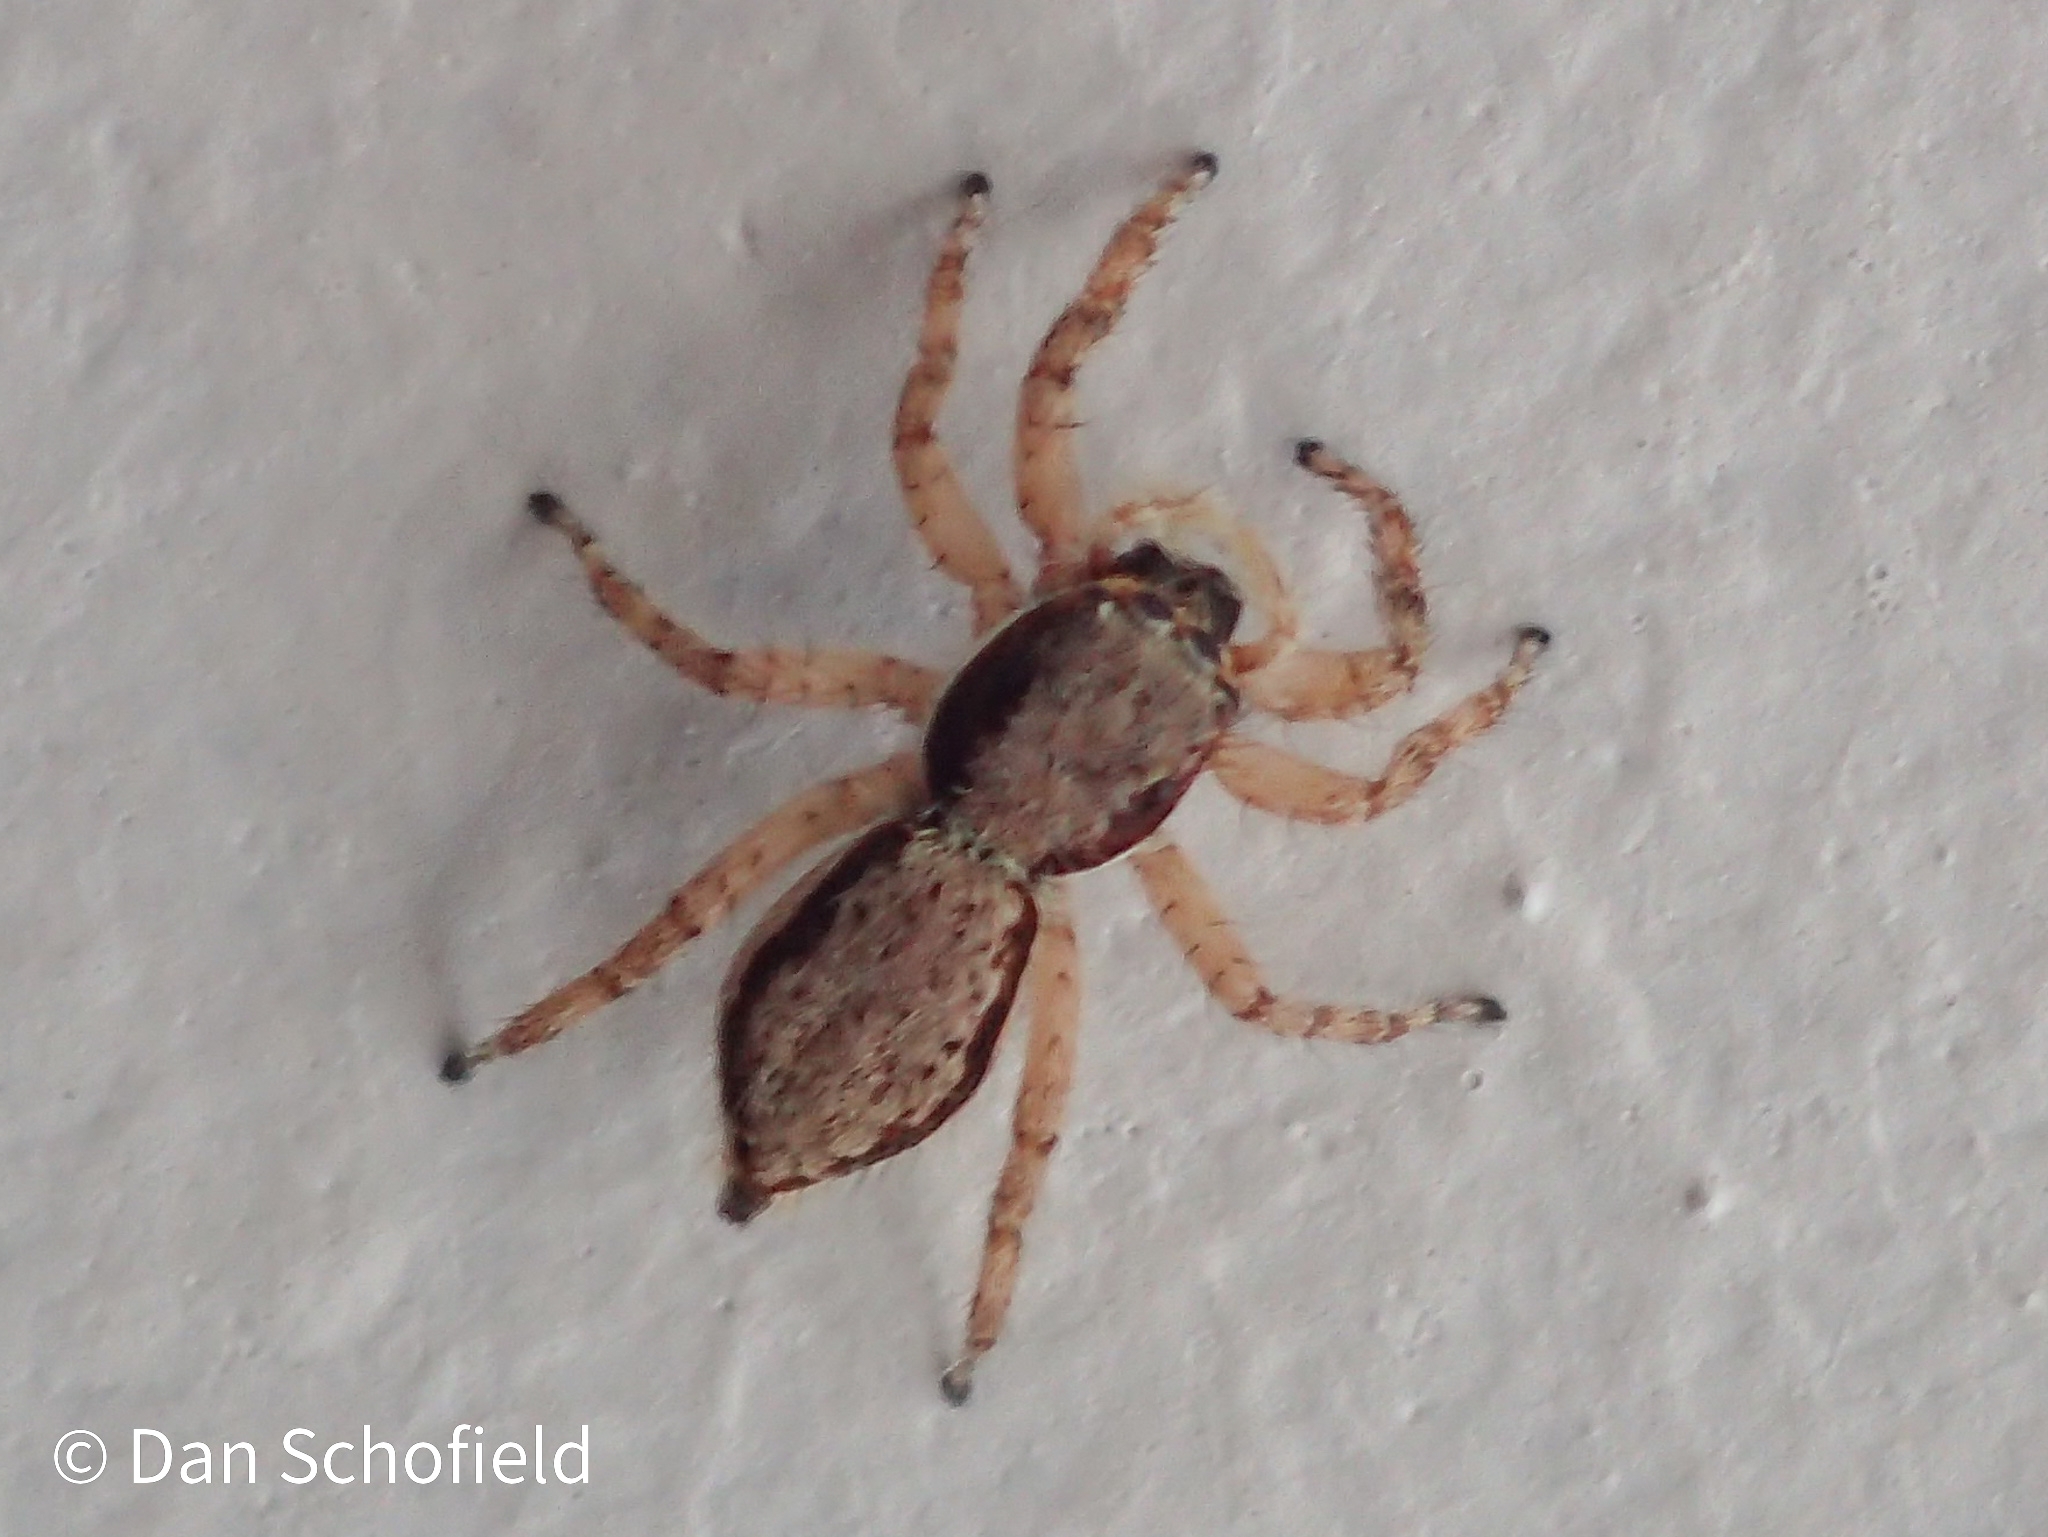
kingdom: Animalia
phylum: Arthropoda
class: Arachnida
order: Araneae
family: Salticidae
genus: Menemerus
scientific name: Menemerus bivittatus
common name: Gray wall jumper
